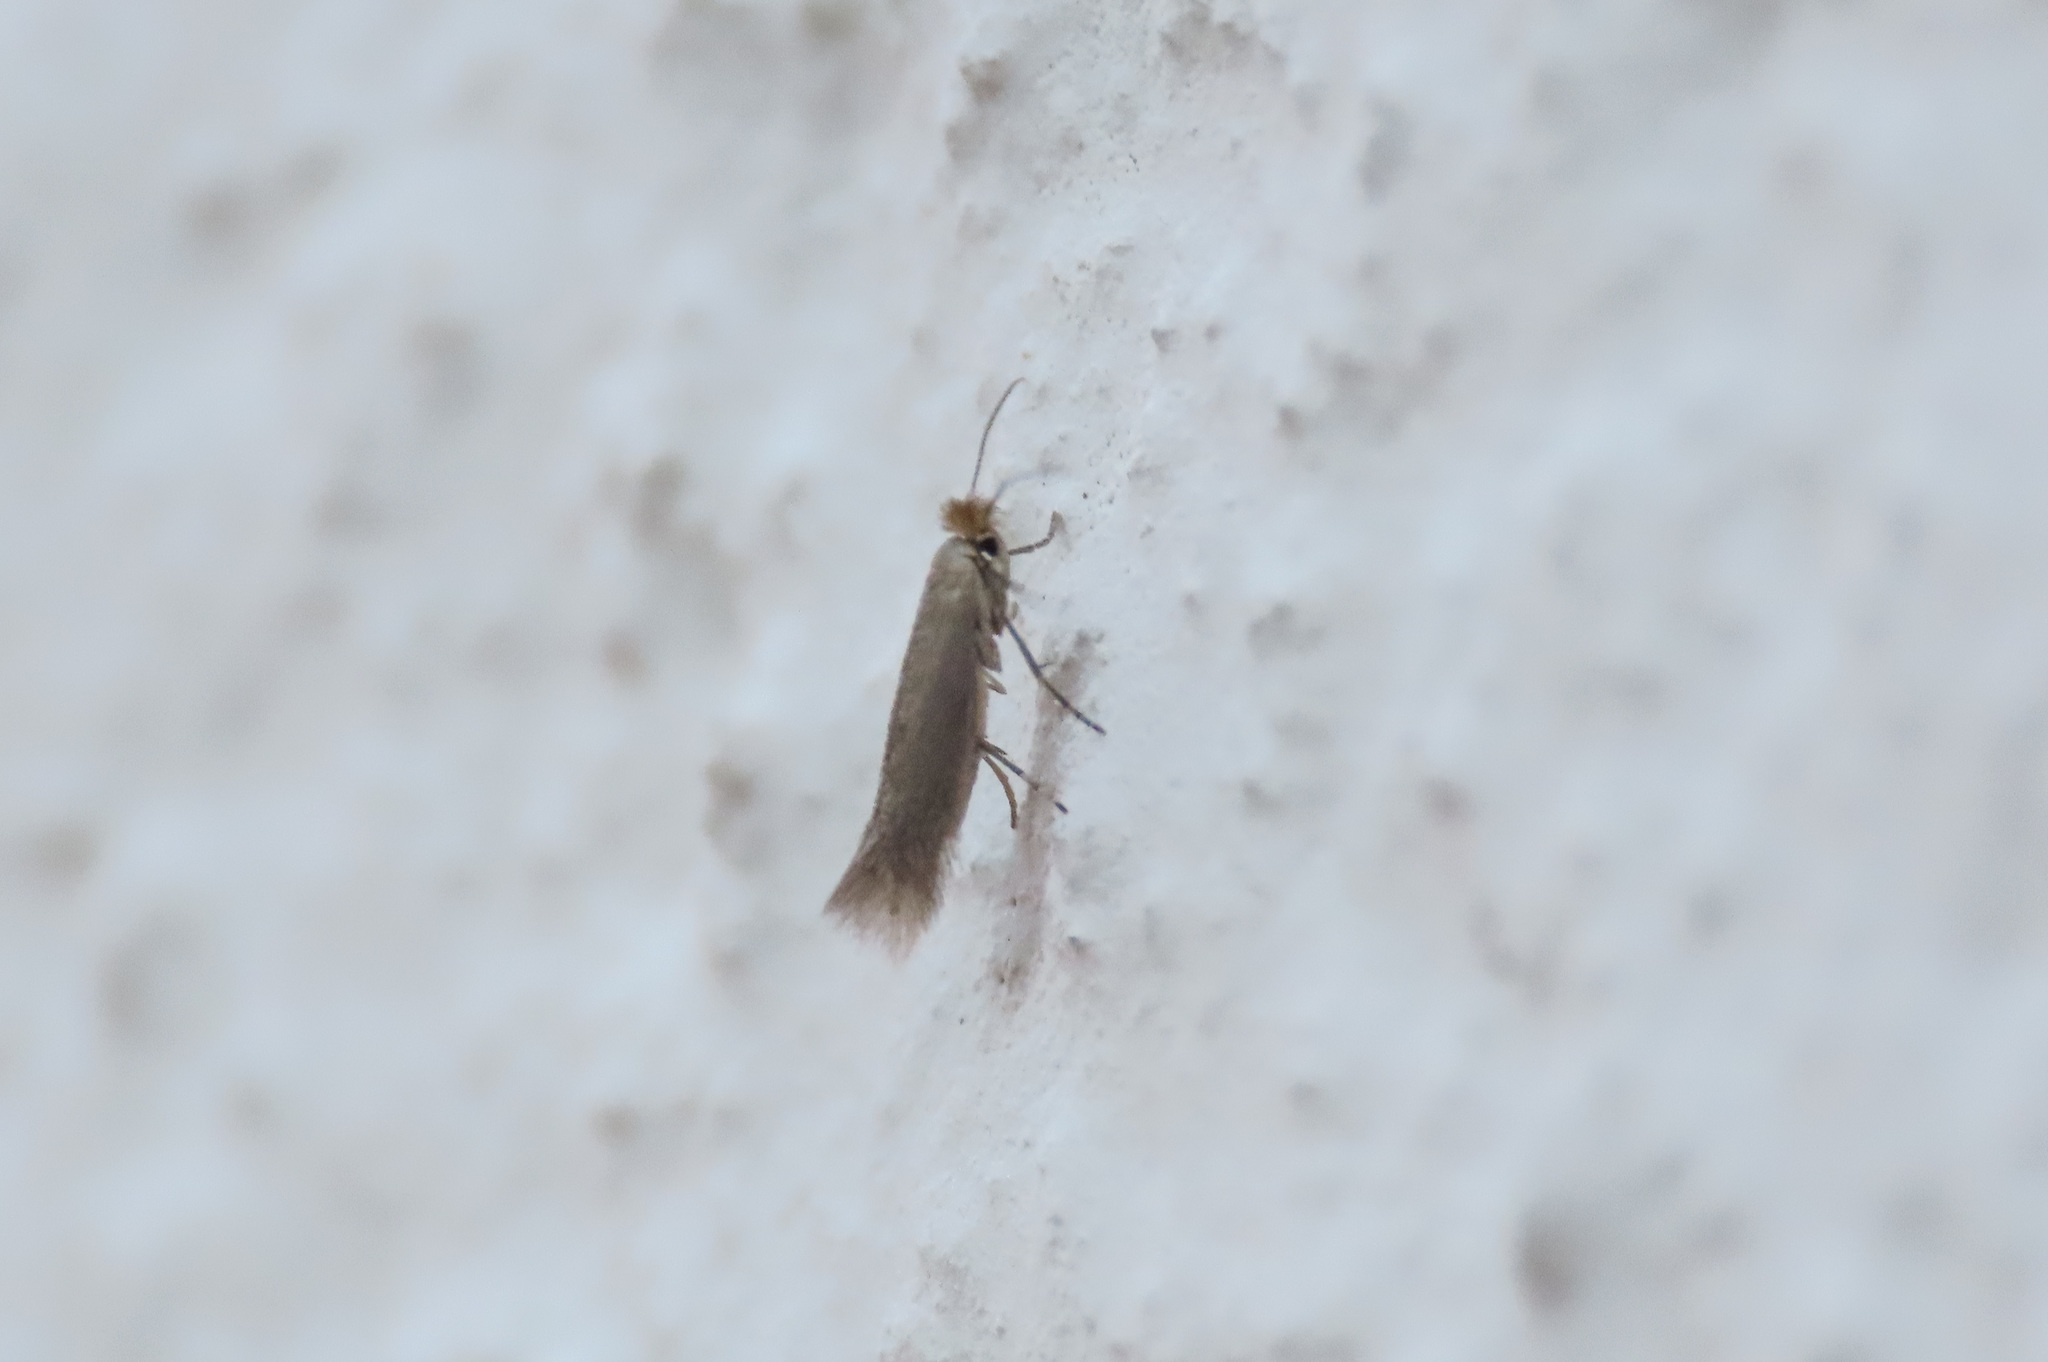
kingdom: Animalia
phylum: Arthropoda
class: Insecta
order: Lepidoptera
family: Bucculatricidae
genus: Bucculatrix
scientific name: Bucculatrix cristatella
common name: Crested bent-wing
